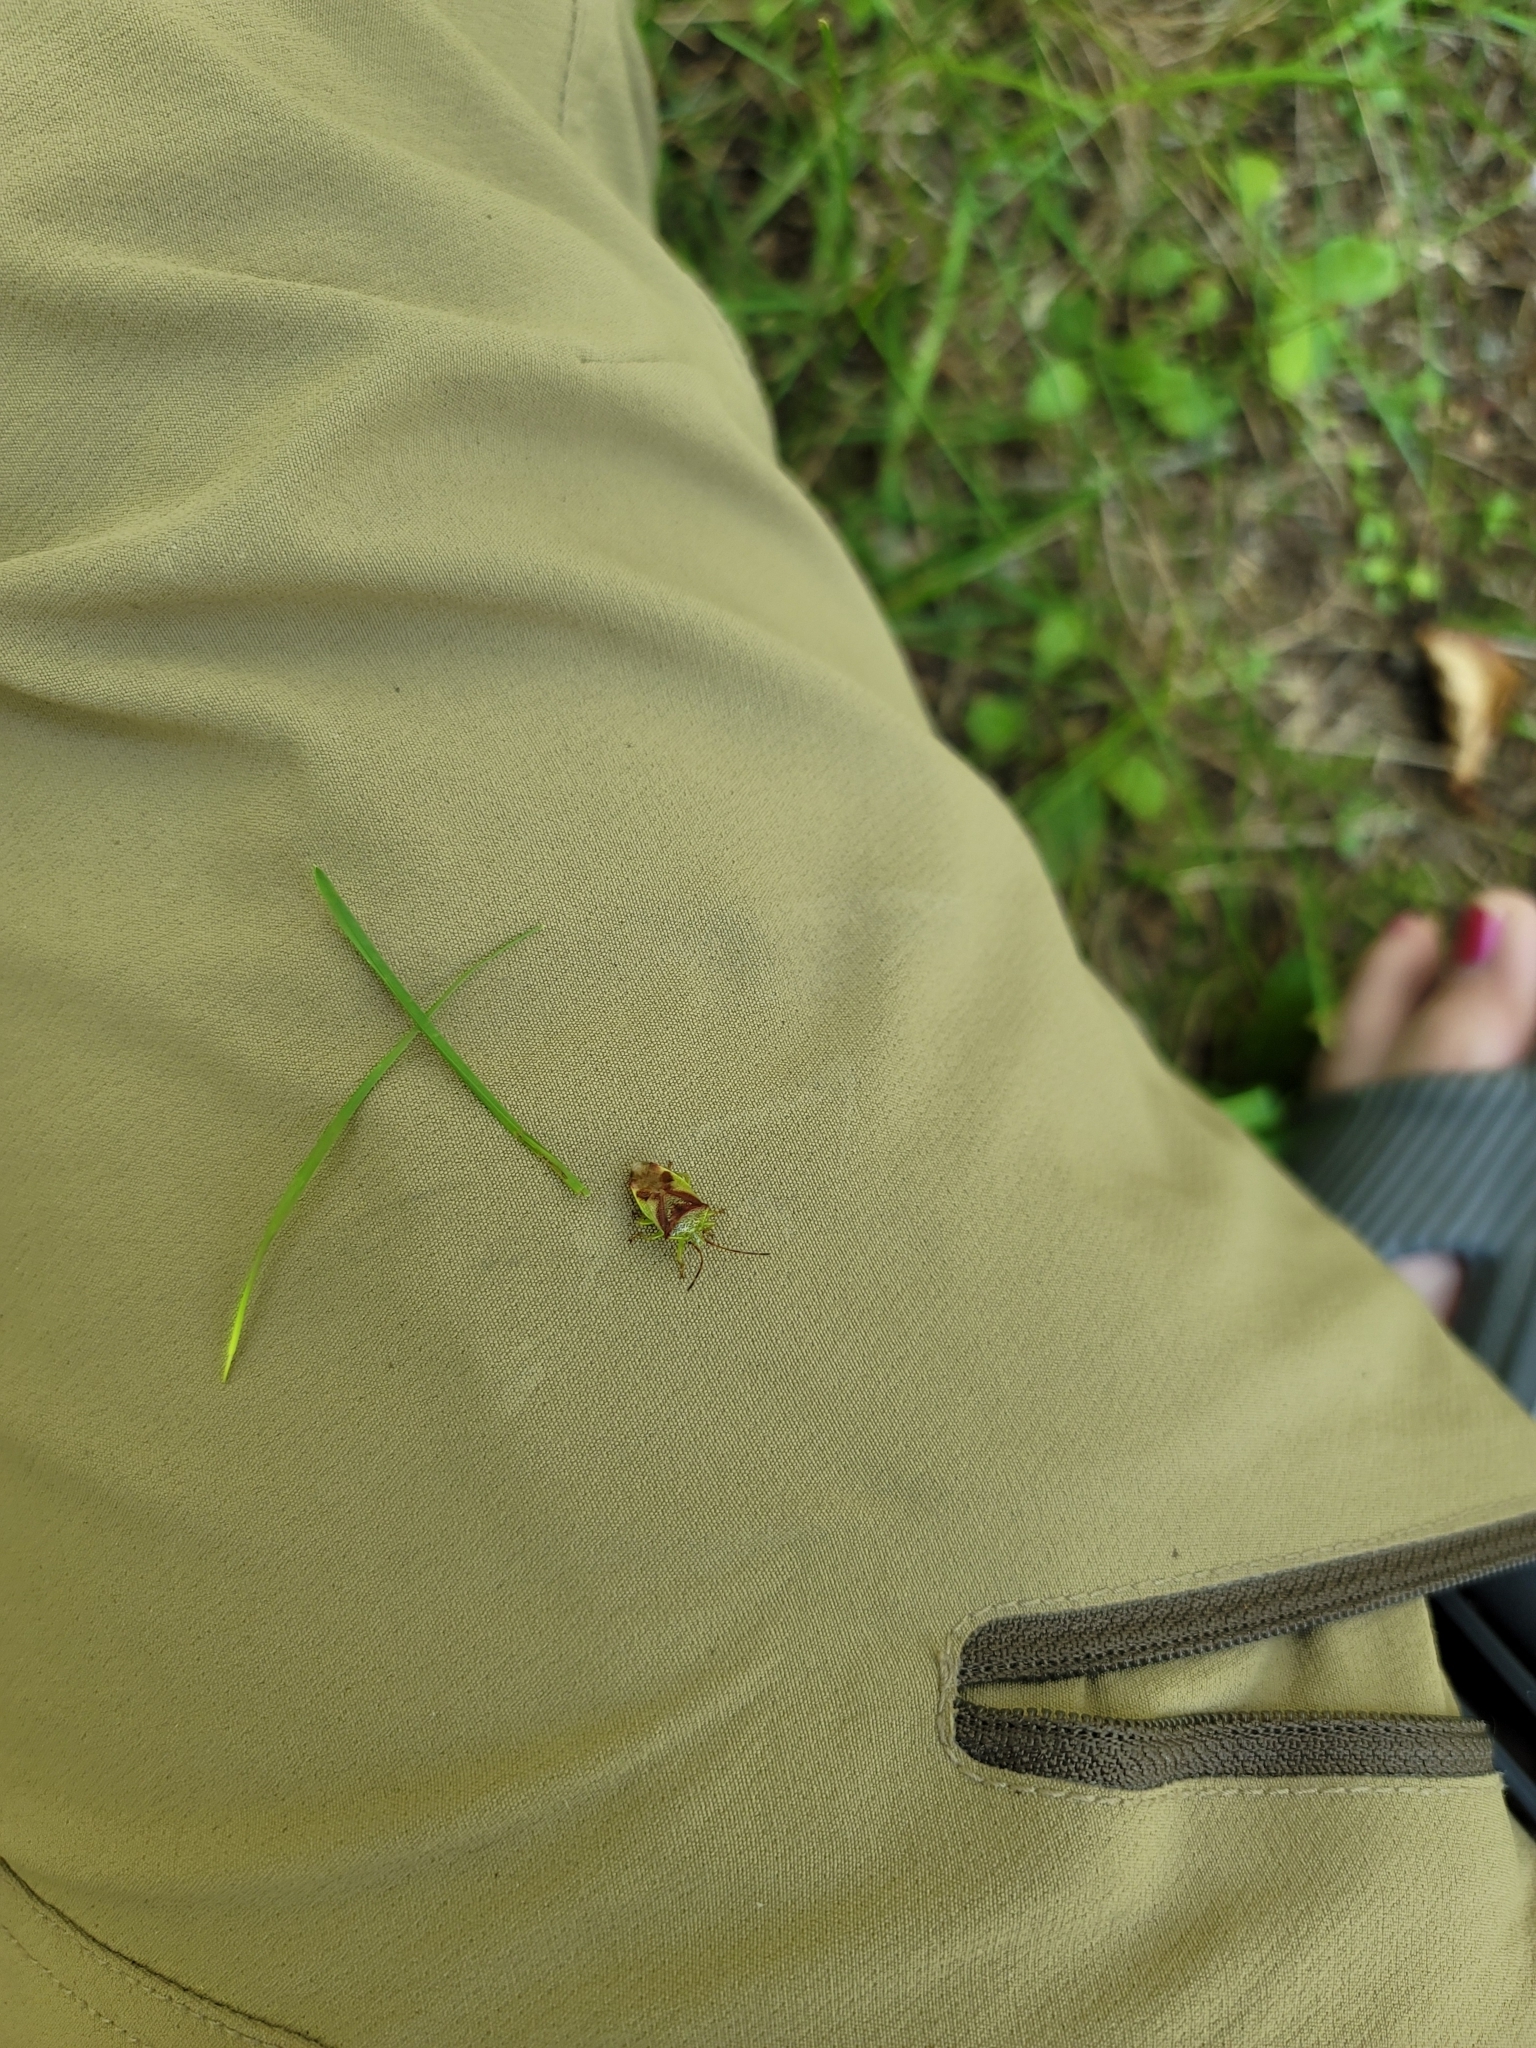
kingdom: Animalia
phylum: Arthropoda
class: Insecta
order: Hemiptera
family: Acanthosomatidae
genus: Elasmostethus
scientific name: Elasmostethus cruciatus
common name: Red-cross shield bug
